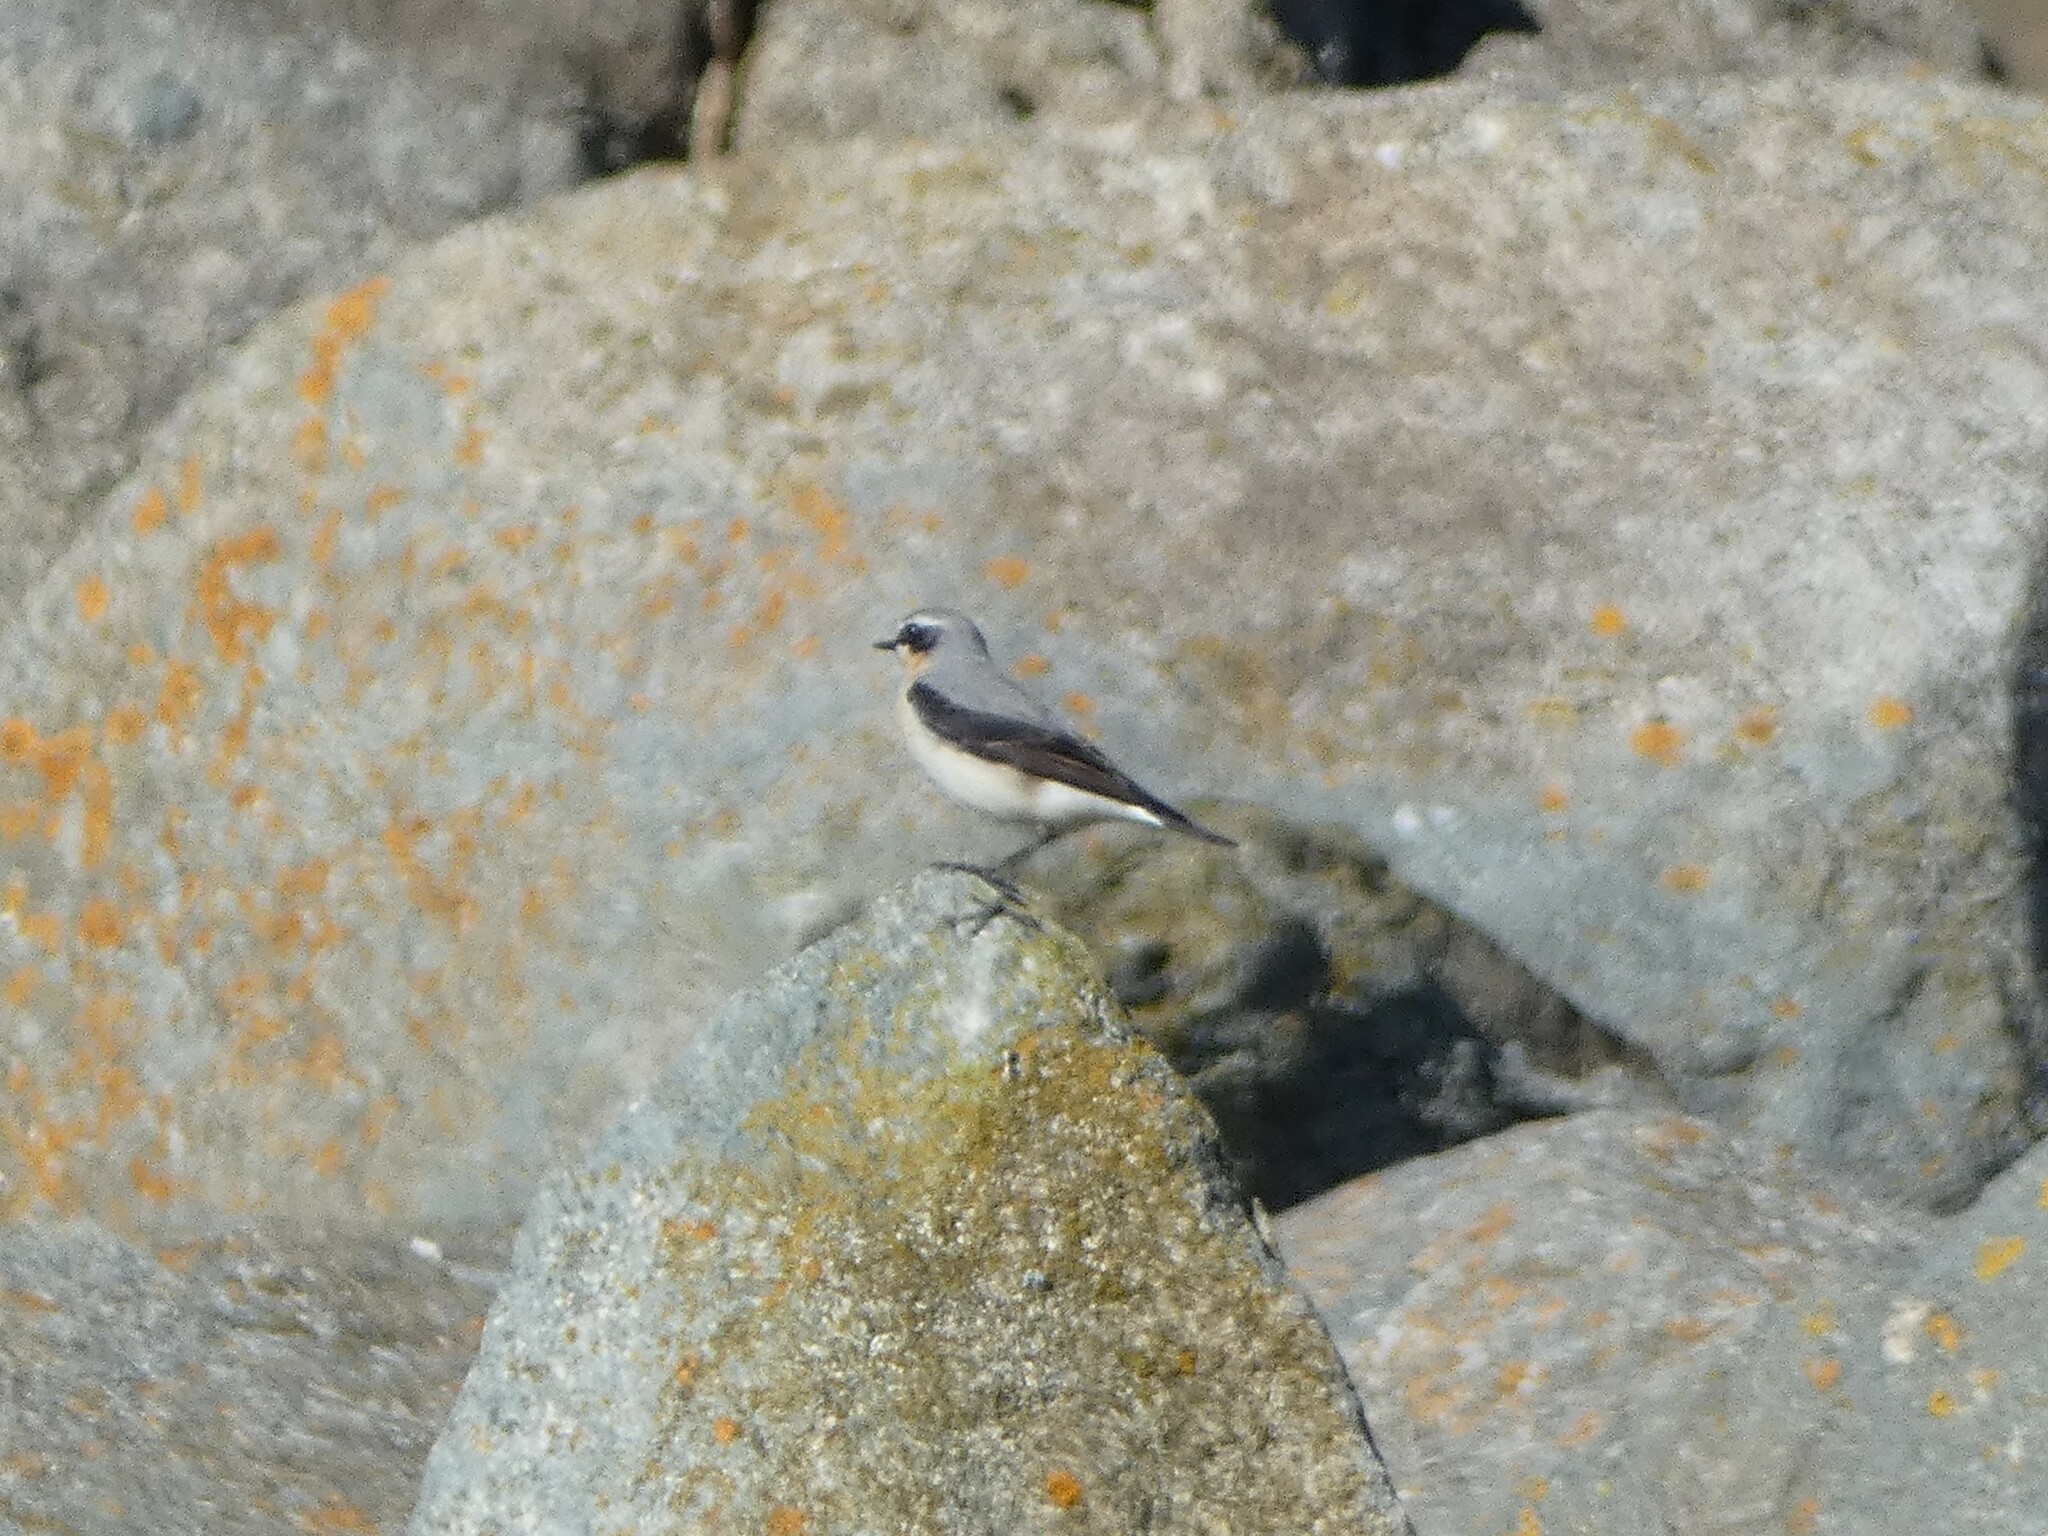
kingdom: Animalia
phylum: Chordata
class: Aves
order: Passeriformes
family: Muscicapidae
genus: Oenanthe
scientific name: Oenanthe oenanthe
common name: Northern wheatear
